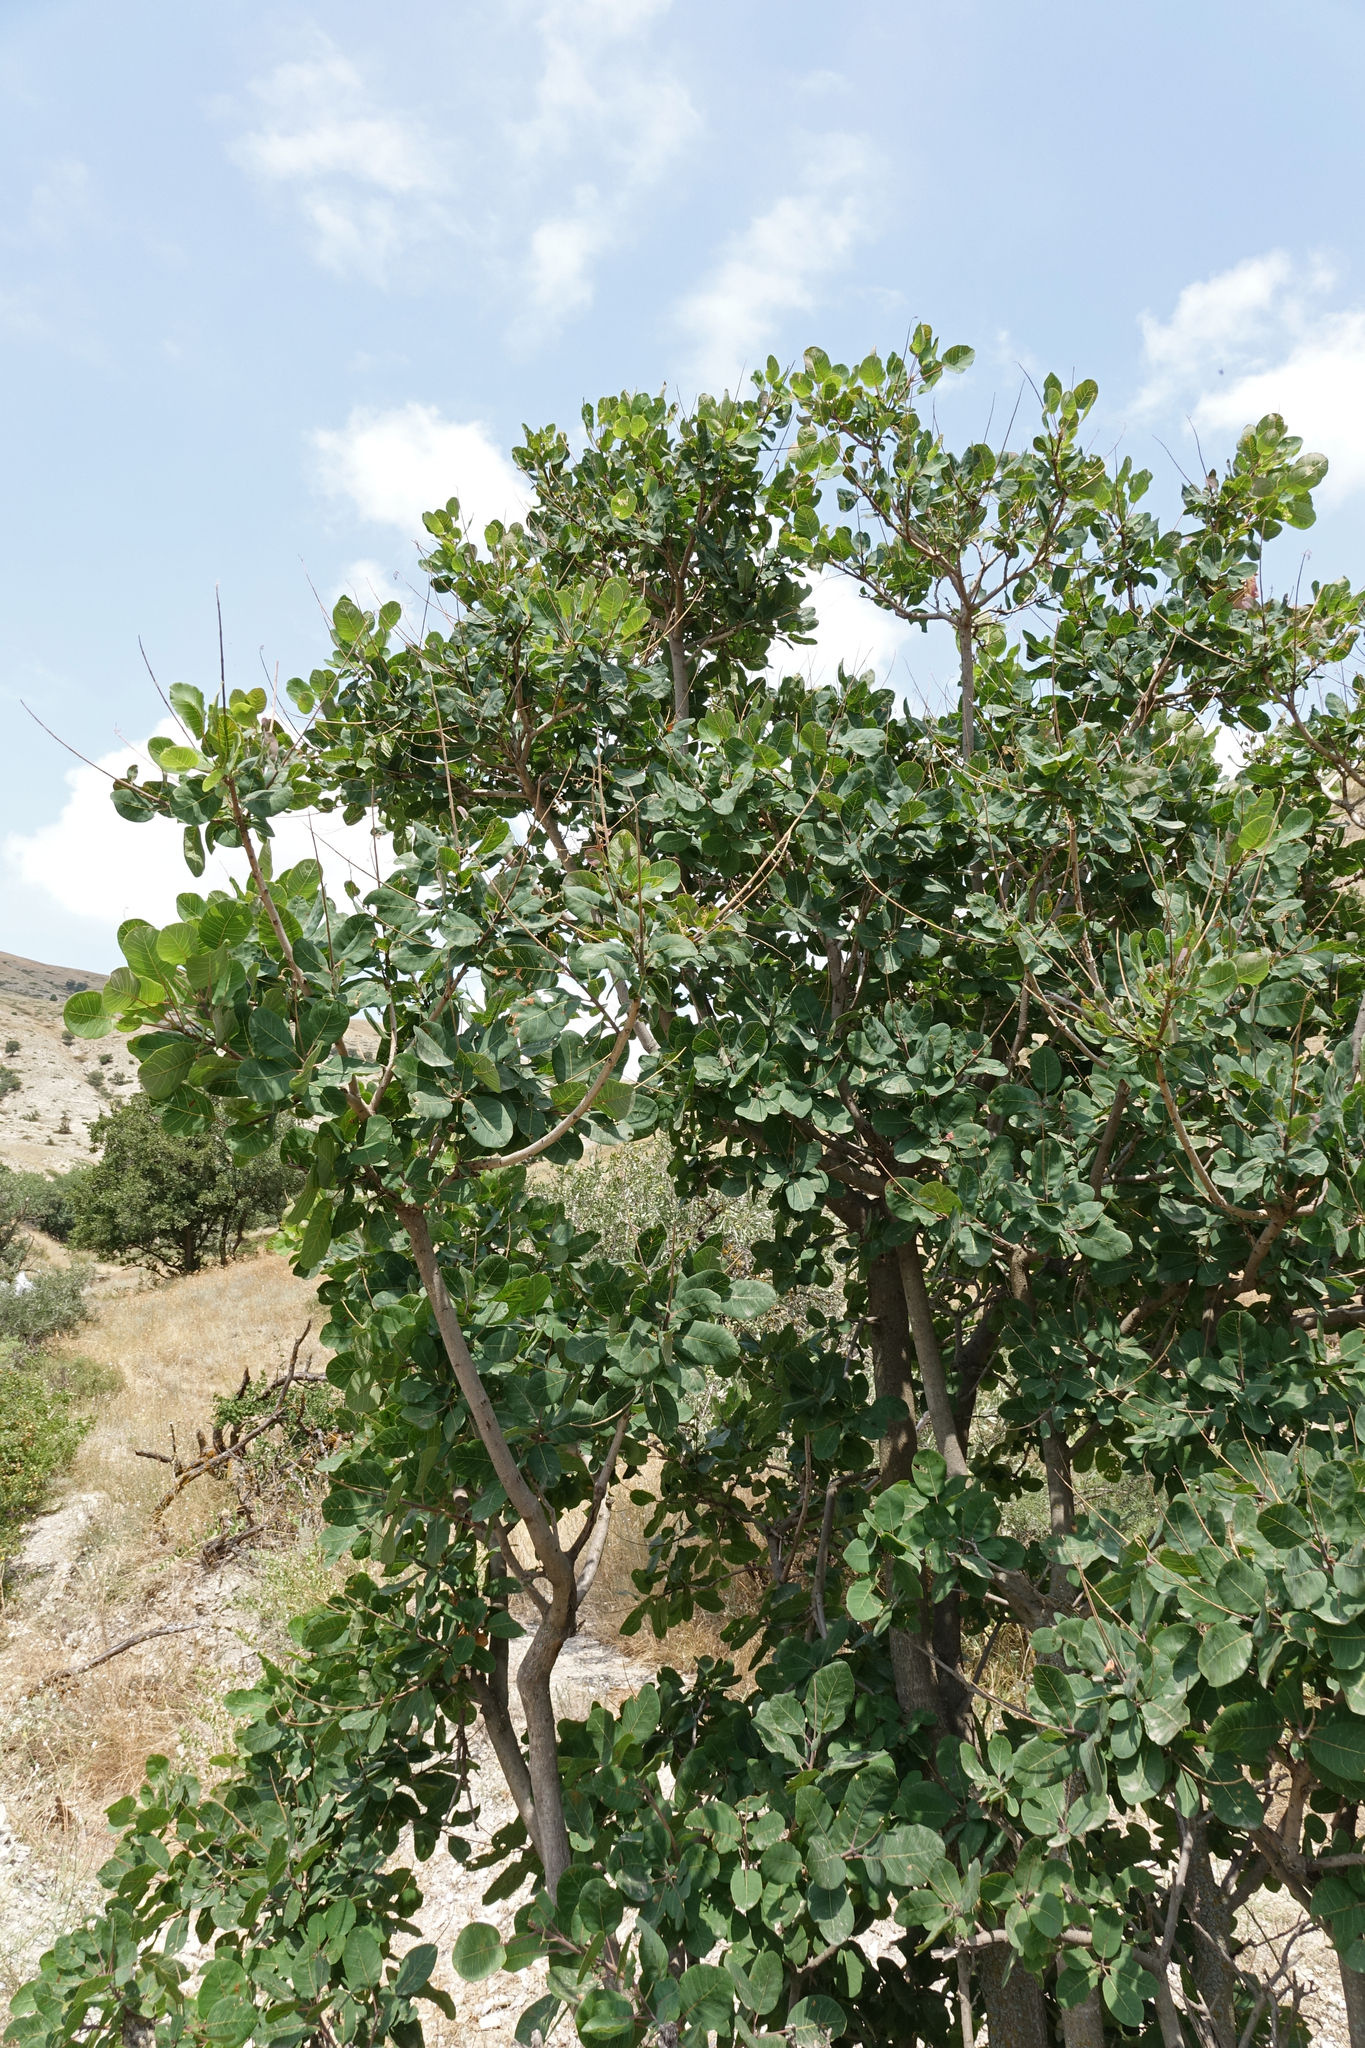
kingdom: Plantae
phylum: Tracheophyta
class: Magnoliopsida
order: Sapindales
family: Anacardiaceae
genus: Cotinus
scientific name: Cotinus coggygria
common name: Smoke-tree
